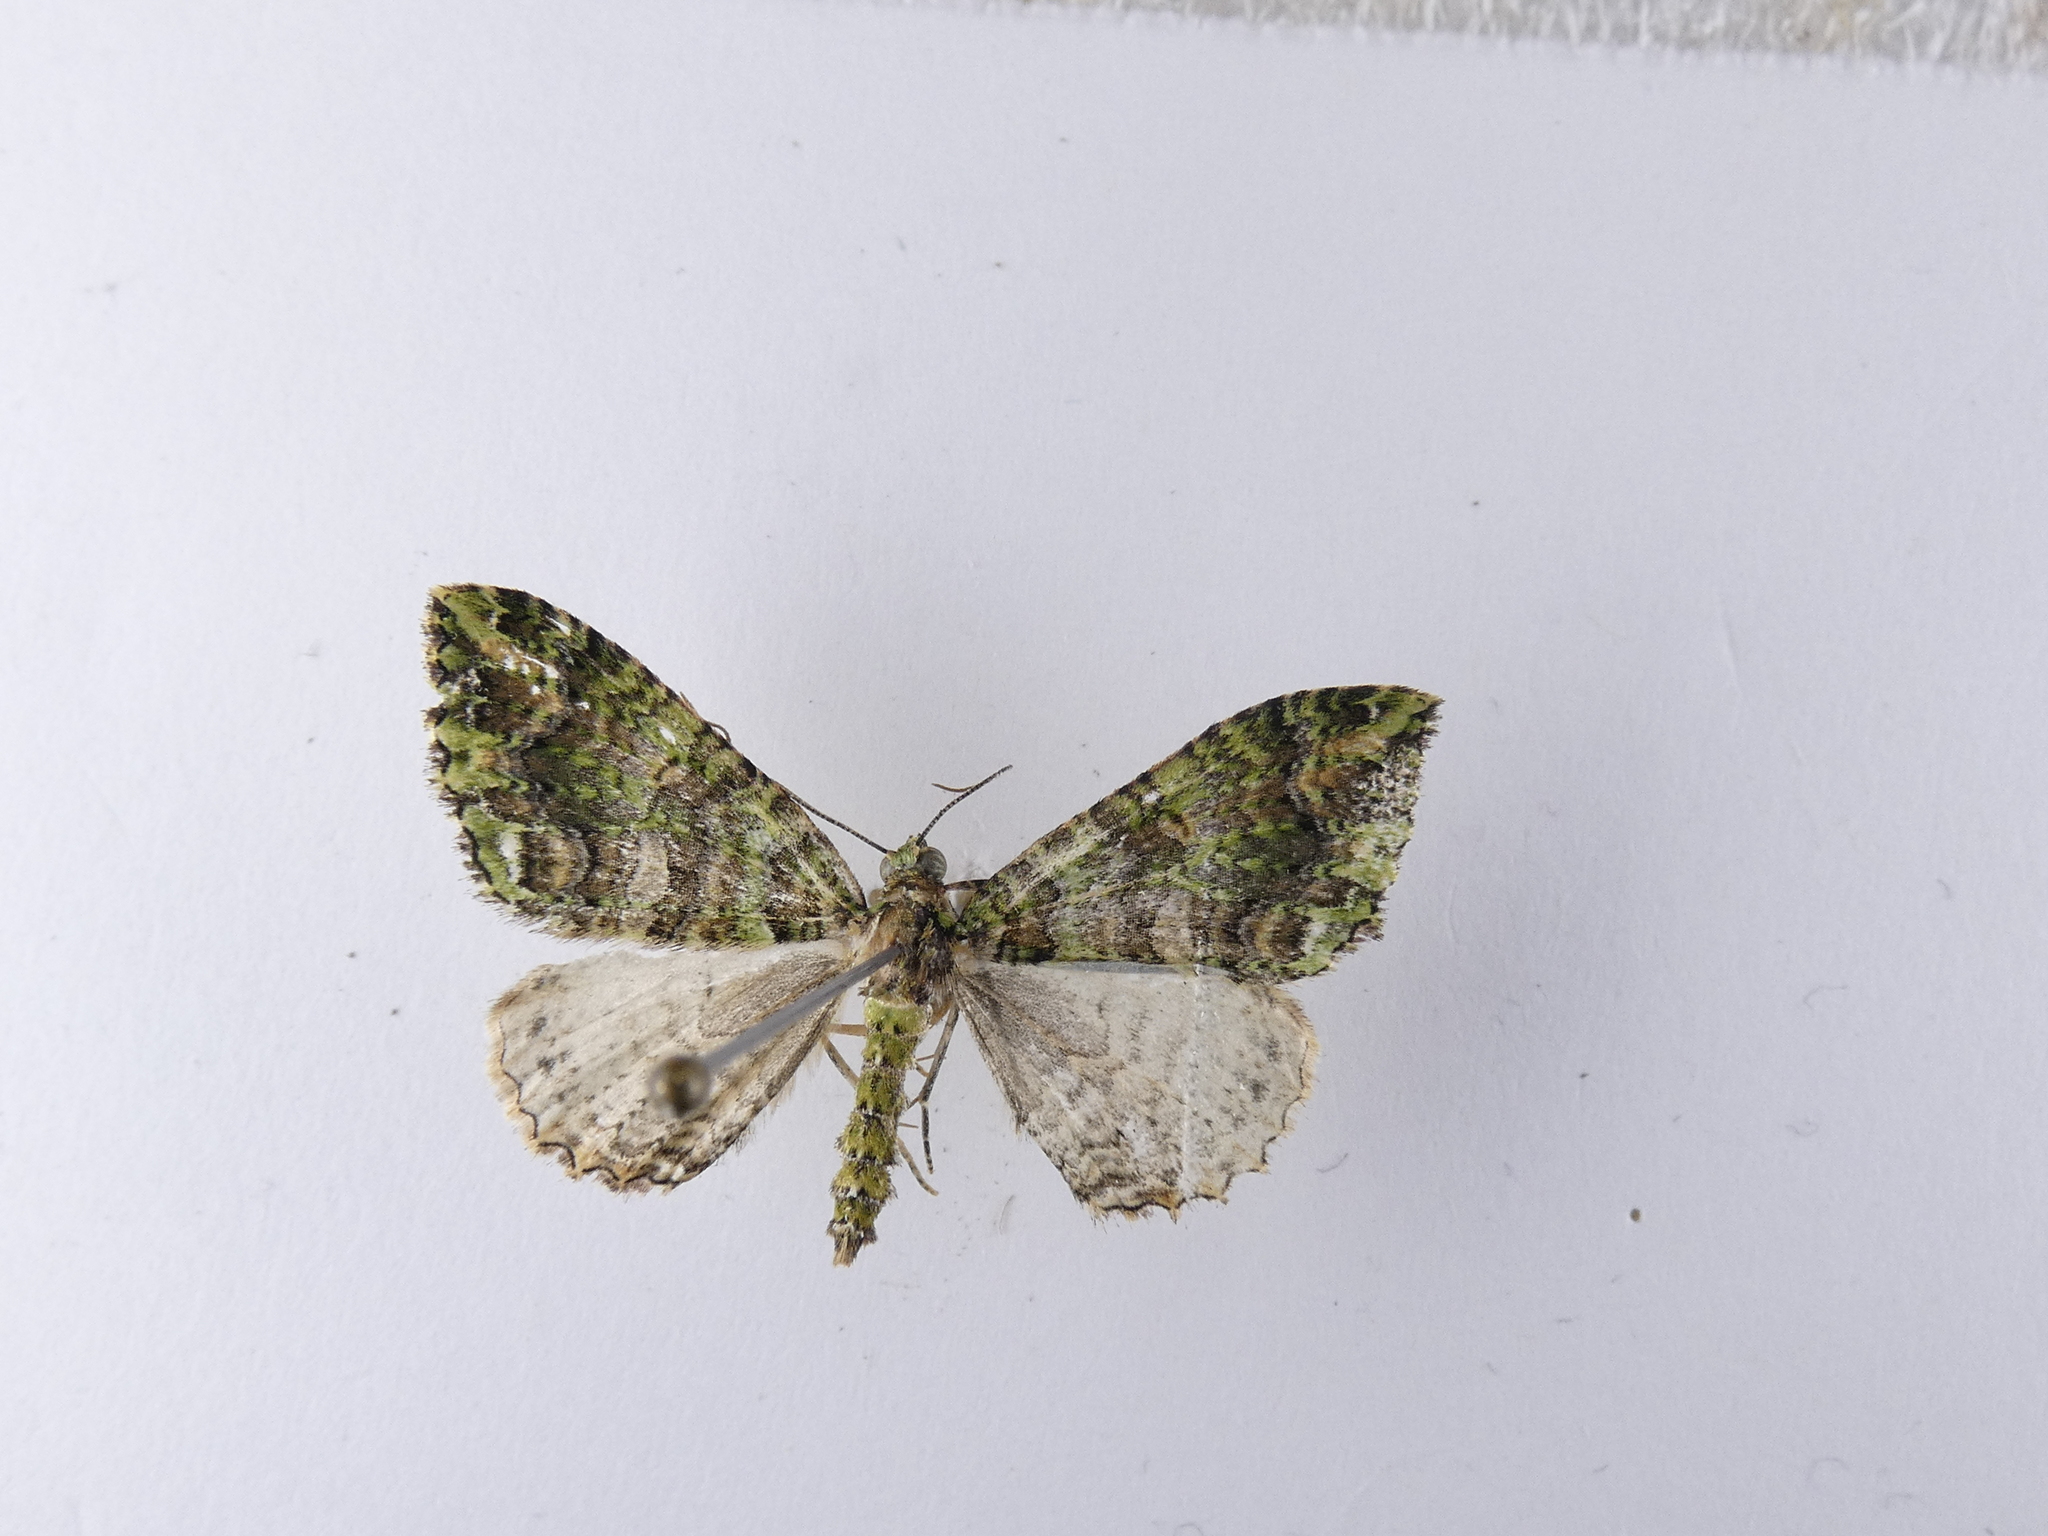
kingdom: Animalia
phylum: Arthropoda
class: Insecta
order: Lepidoptera
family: Geometridae
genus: Austrocidaria
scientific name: Austrocidaria similata
